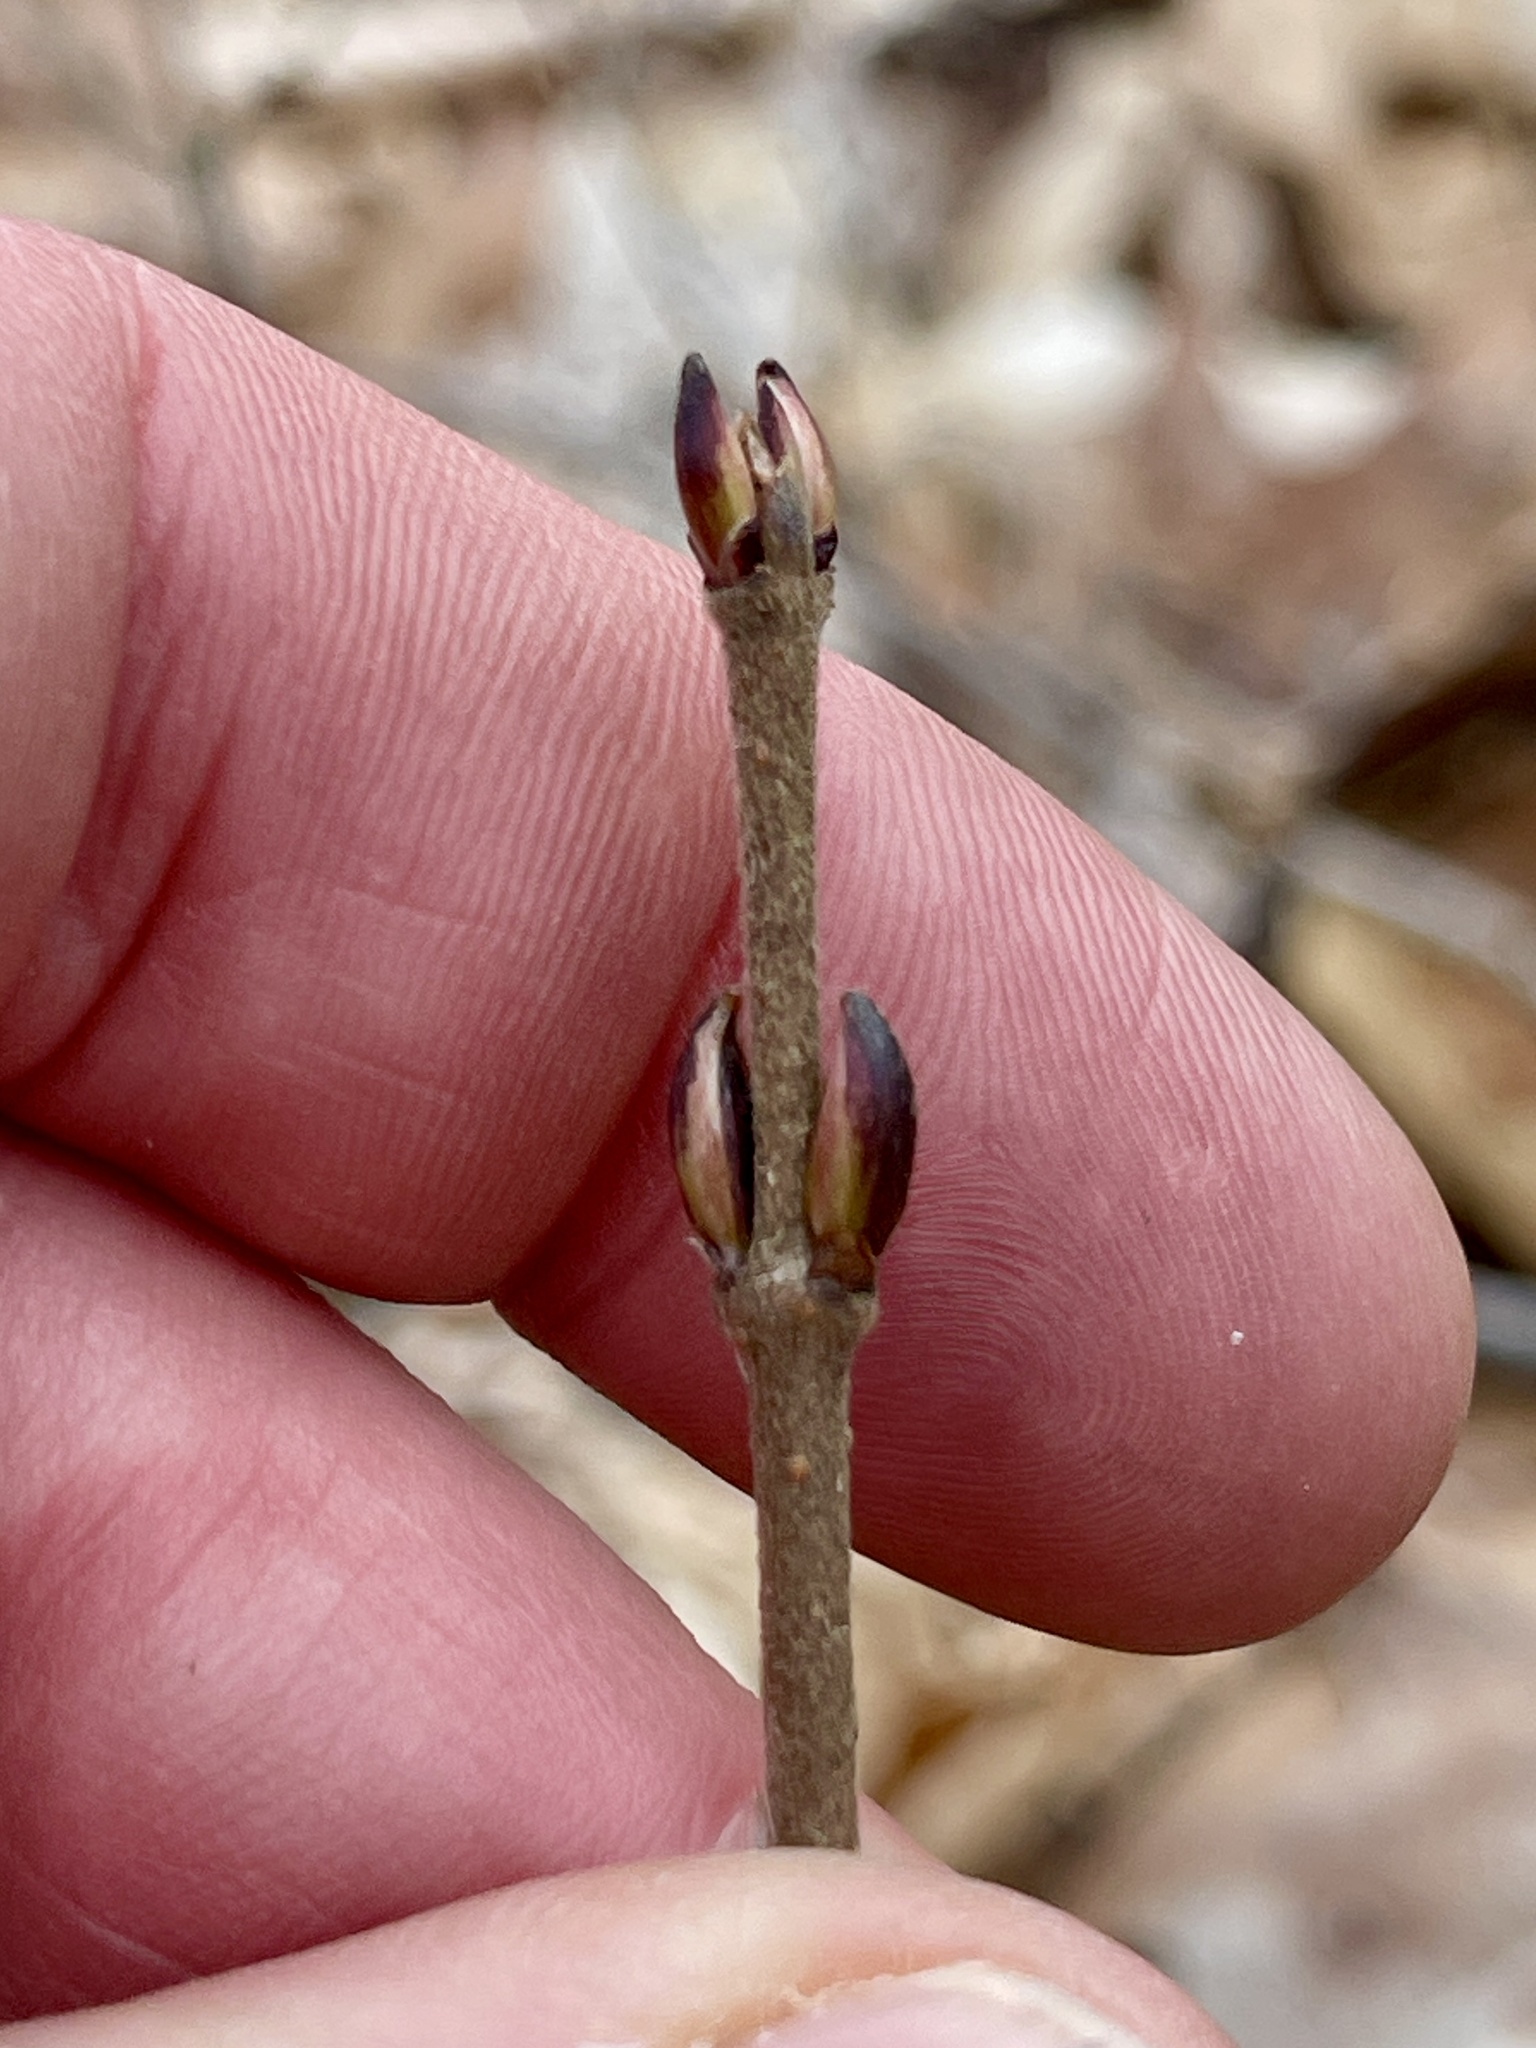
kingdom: Plantae
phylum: Tracheophyta
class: Magnoliopsida
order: Dipsacales
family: Viburnaceae
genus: Viburnum
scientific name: Viburnum acerifolium
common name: Dockmackie
